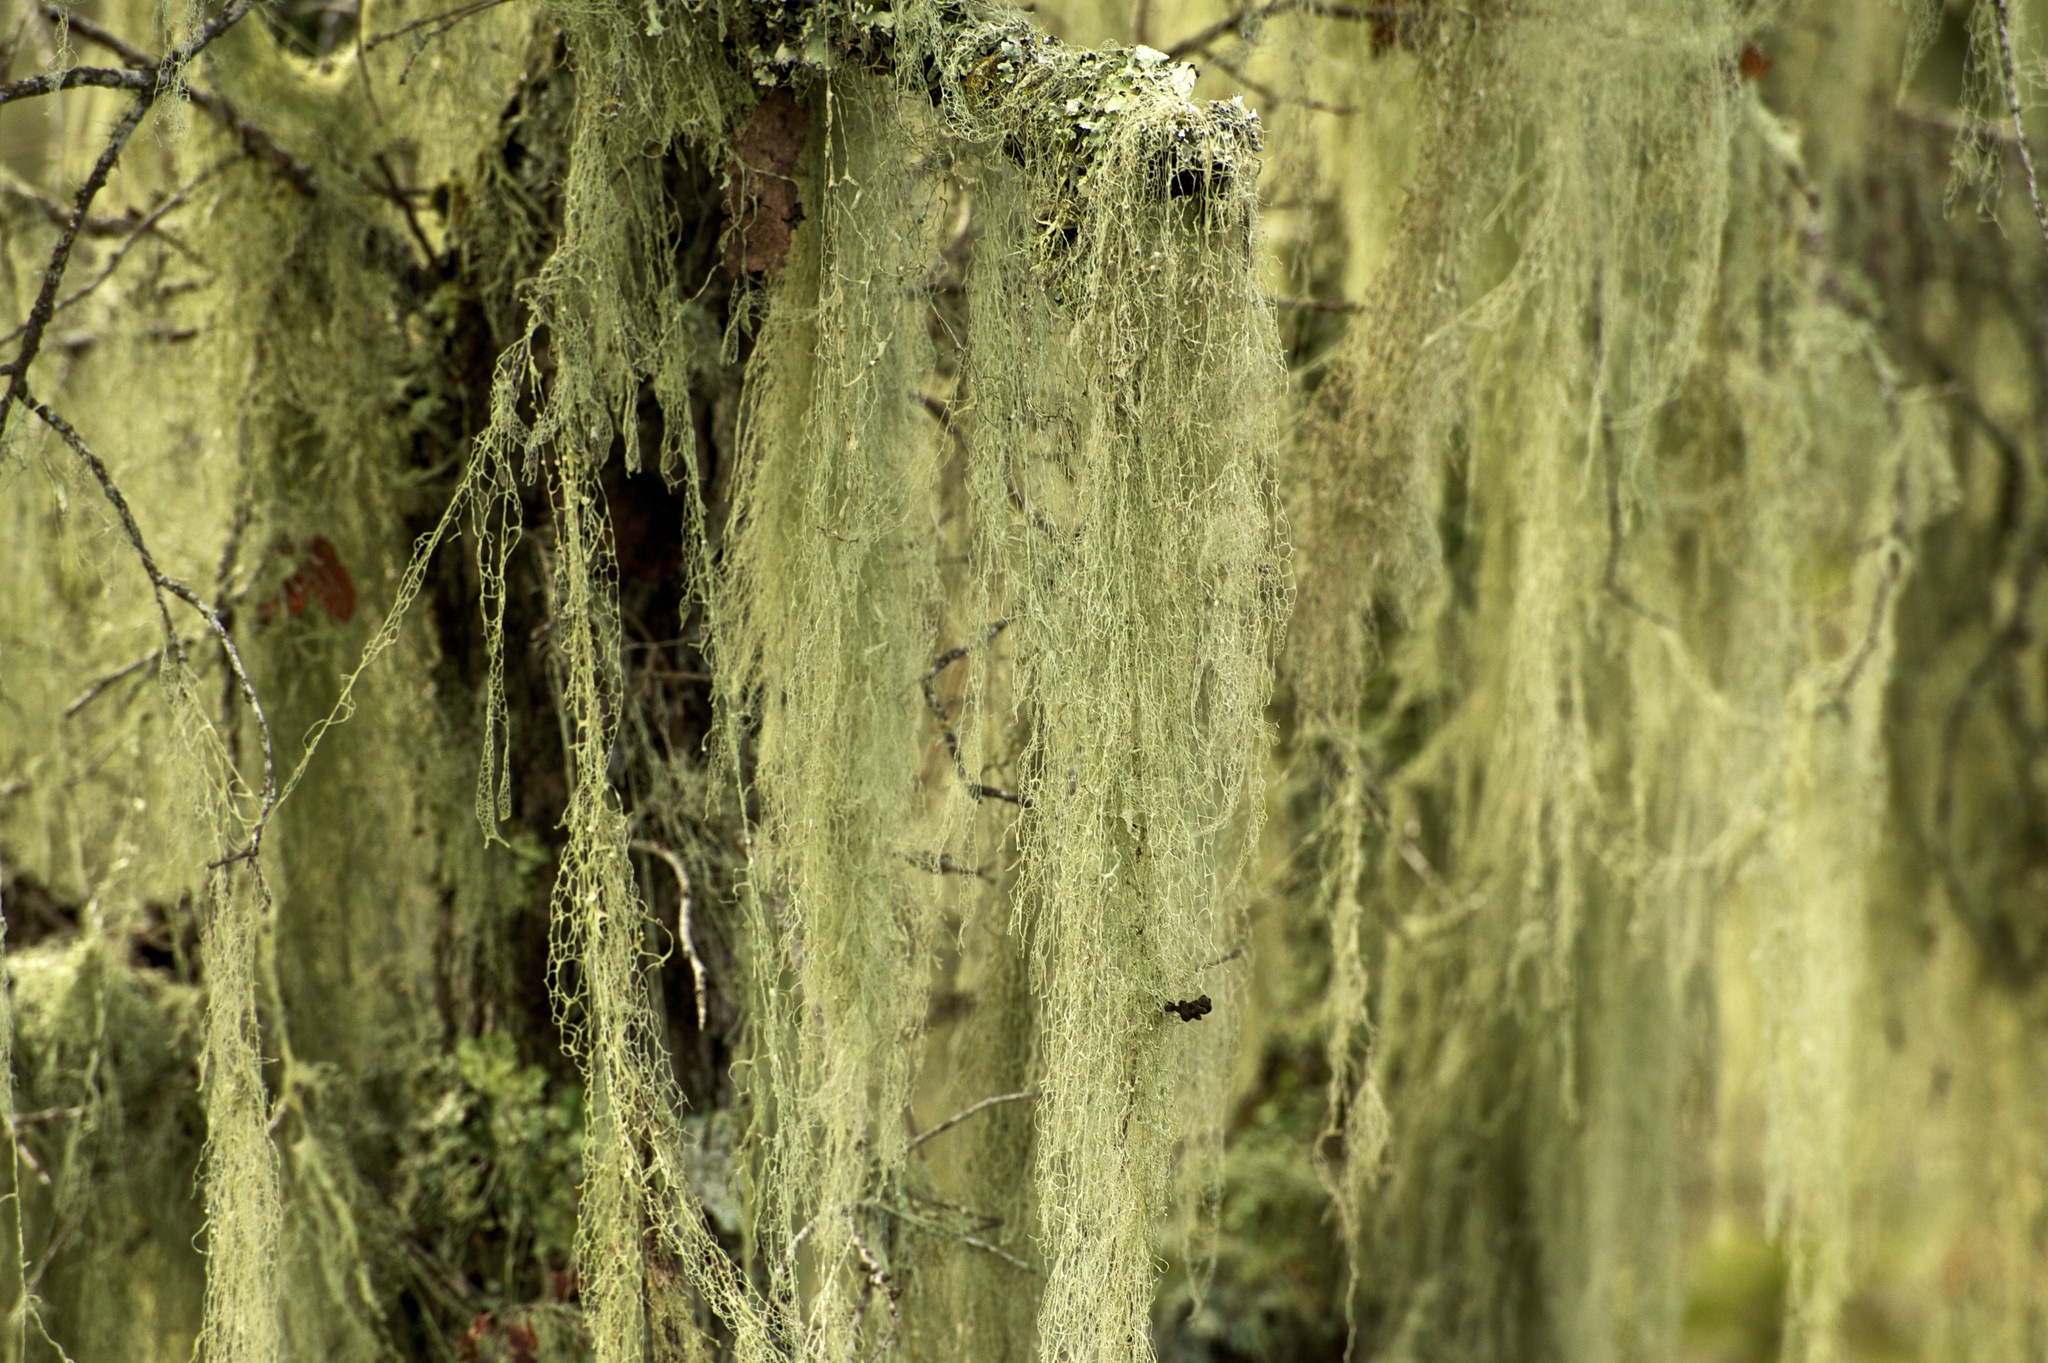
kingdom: Fungi
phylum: Ascomycota
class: Lecanoromycetes
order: Lecanorales
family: Ramalinaceae
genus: Ramalina
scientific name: Ramalina menziesii
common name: Lace lichen
